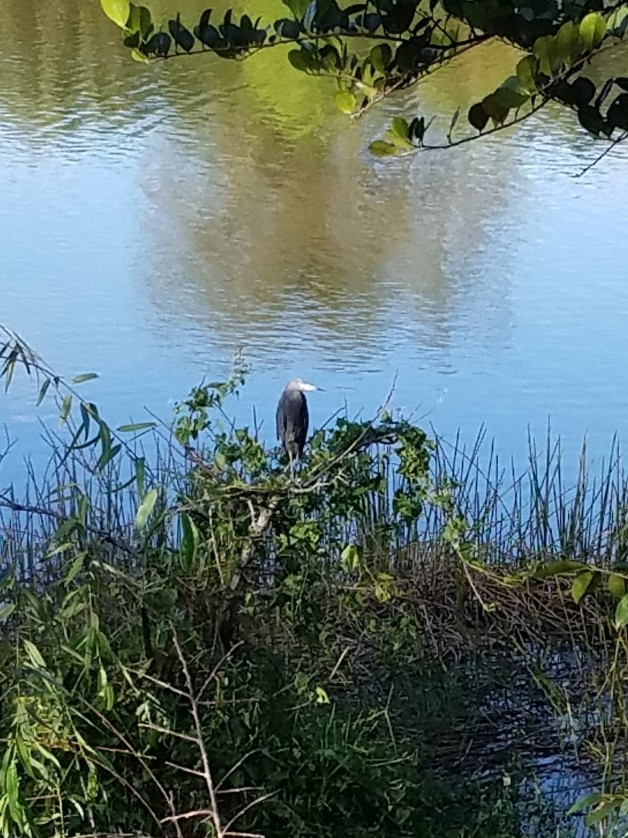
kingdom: Animalia
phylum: Chordata
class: Aves
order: Pelecaniformes
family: Ardeidae
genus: Egretta
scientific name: Egretta caerulea
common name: Little blue heron
